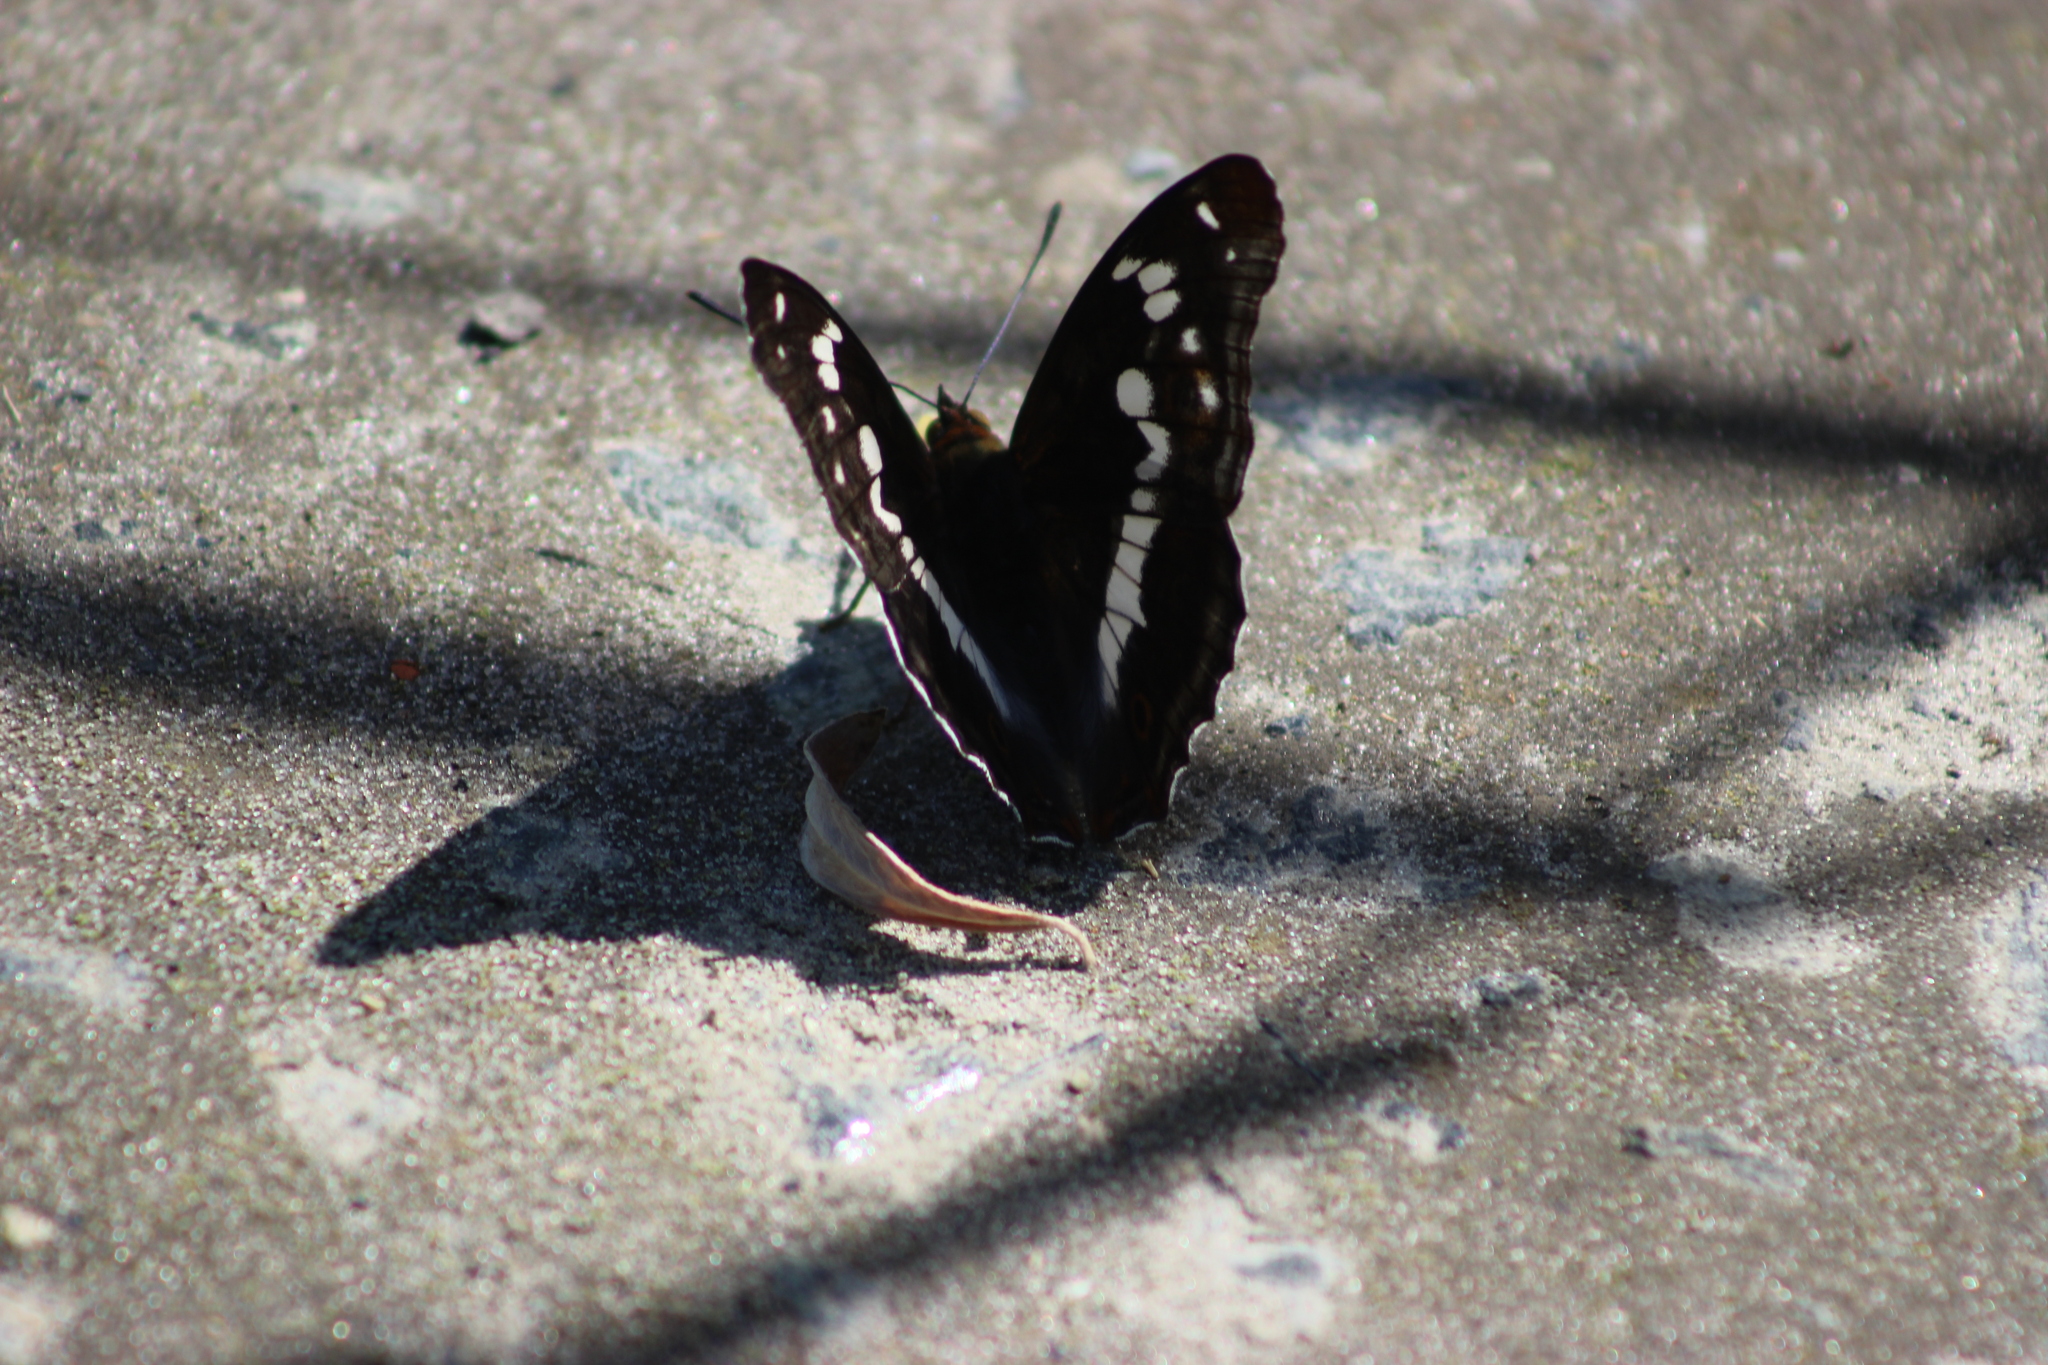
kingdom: Animalia
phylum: Arthropoda
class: Insecta
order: Lepidoptera
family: Nymphalidae
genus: Apatura
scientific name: Apatura iris
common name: Purple emperor
